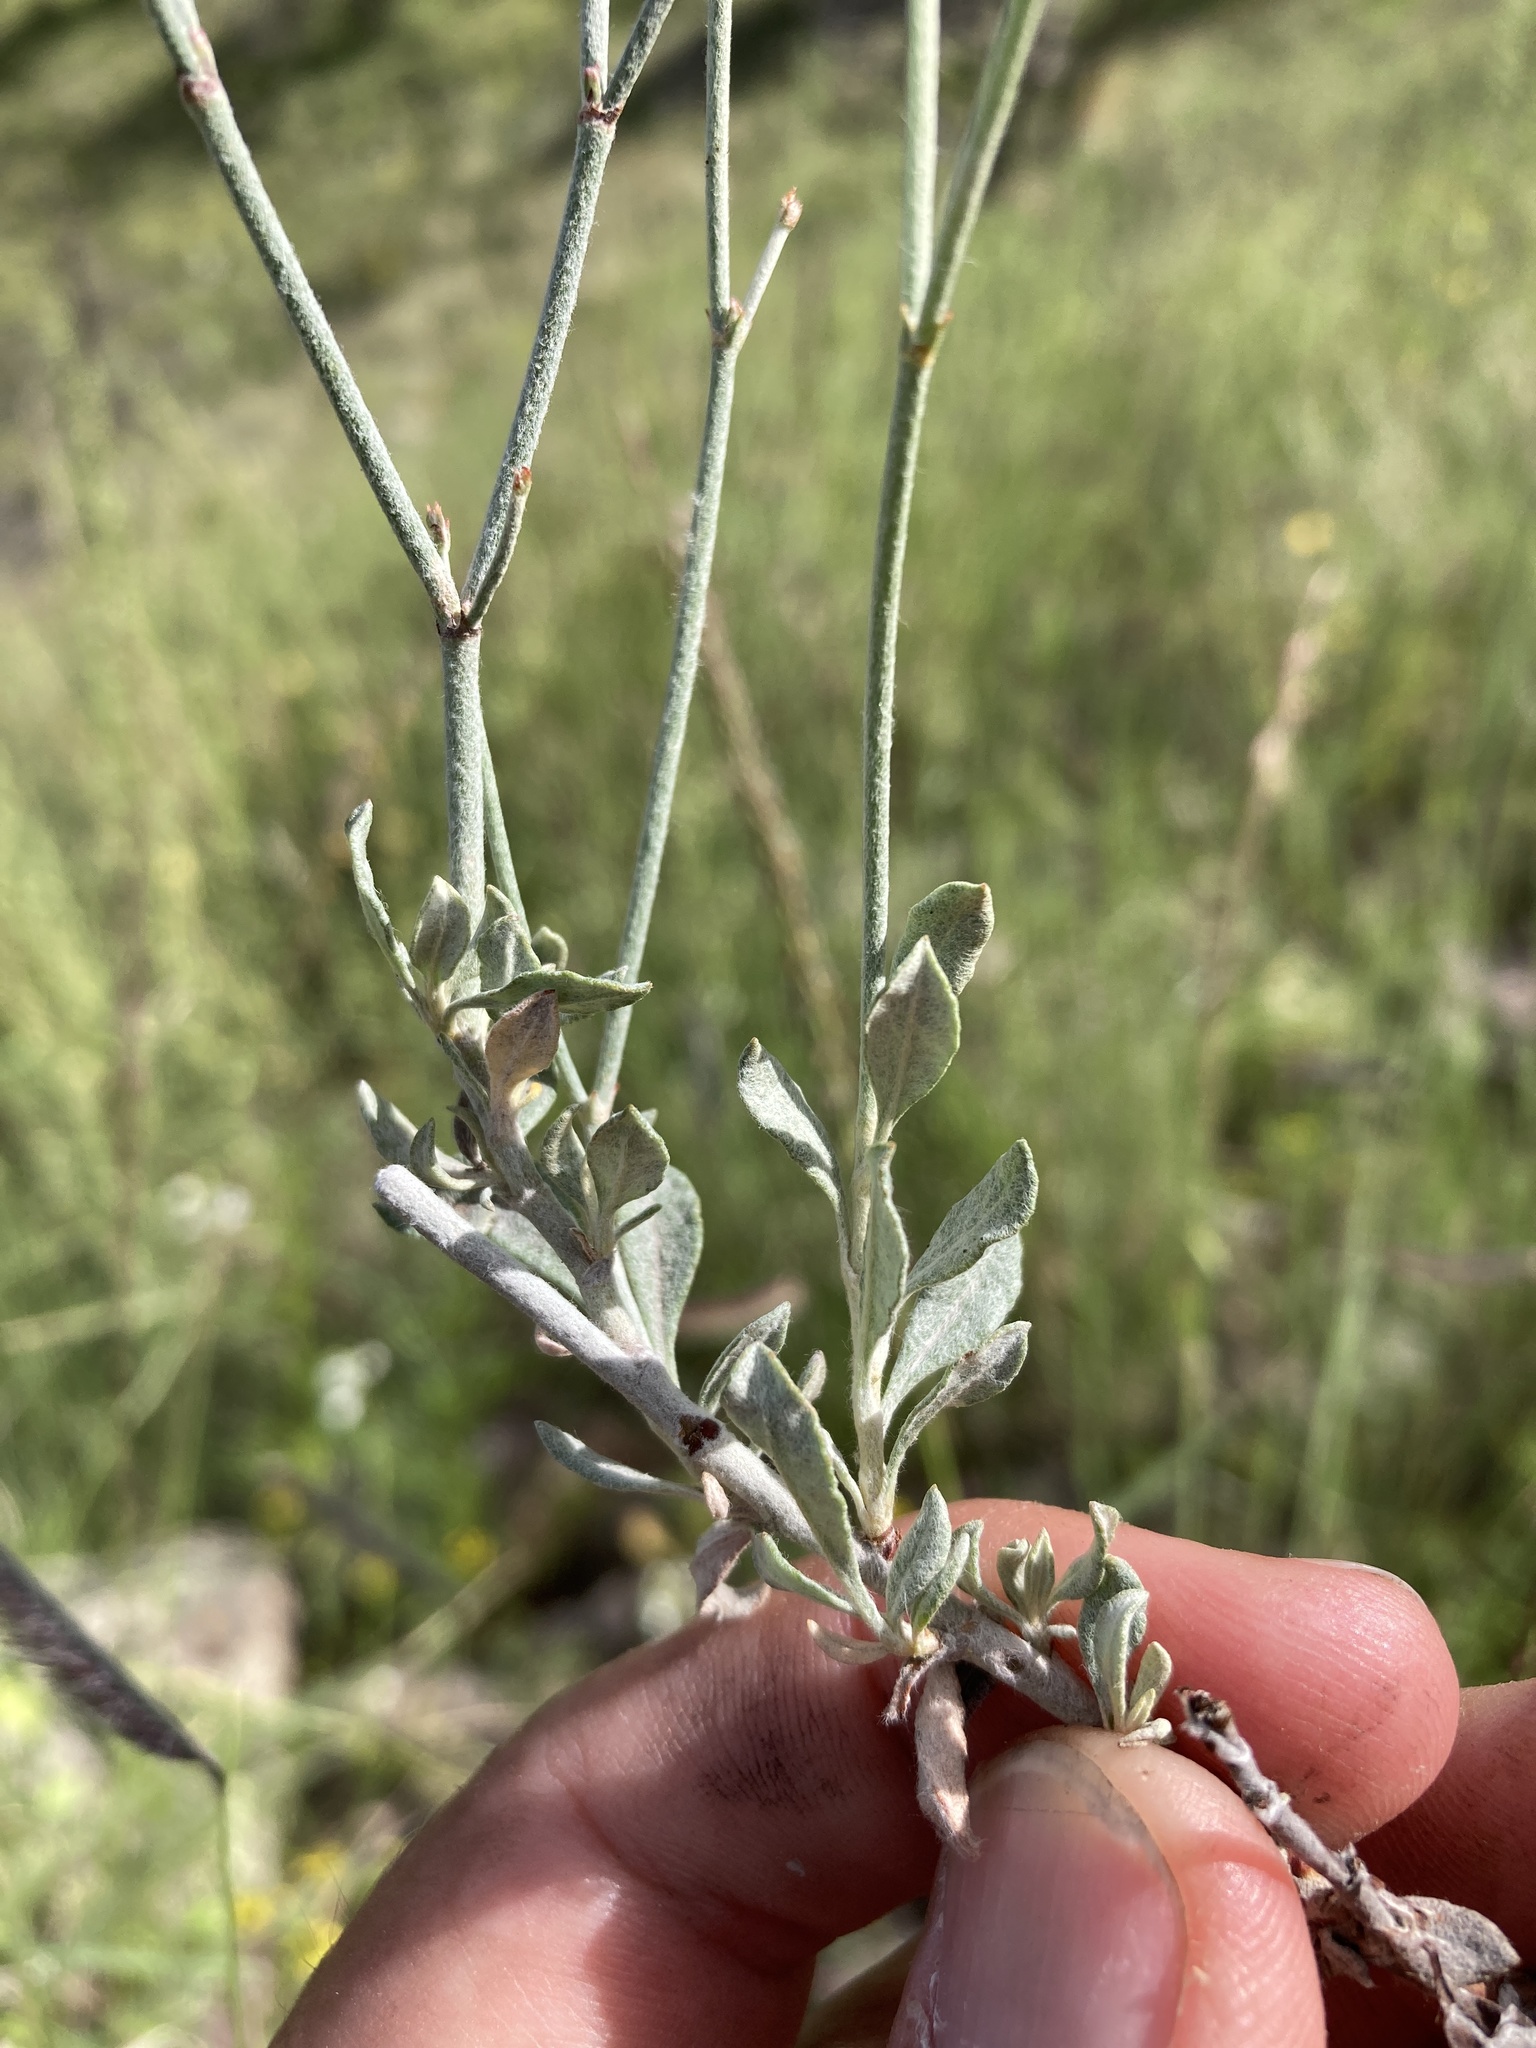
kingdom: Plantae
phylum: Tracheophyta
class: Magnoliopsida
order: Caryophyllales
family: Polygonaceae
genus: Eriogonum
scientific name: Eriogonum wrightii
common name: Bastard-sage
